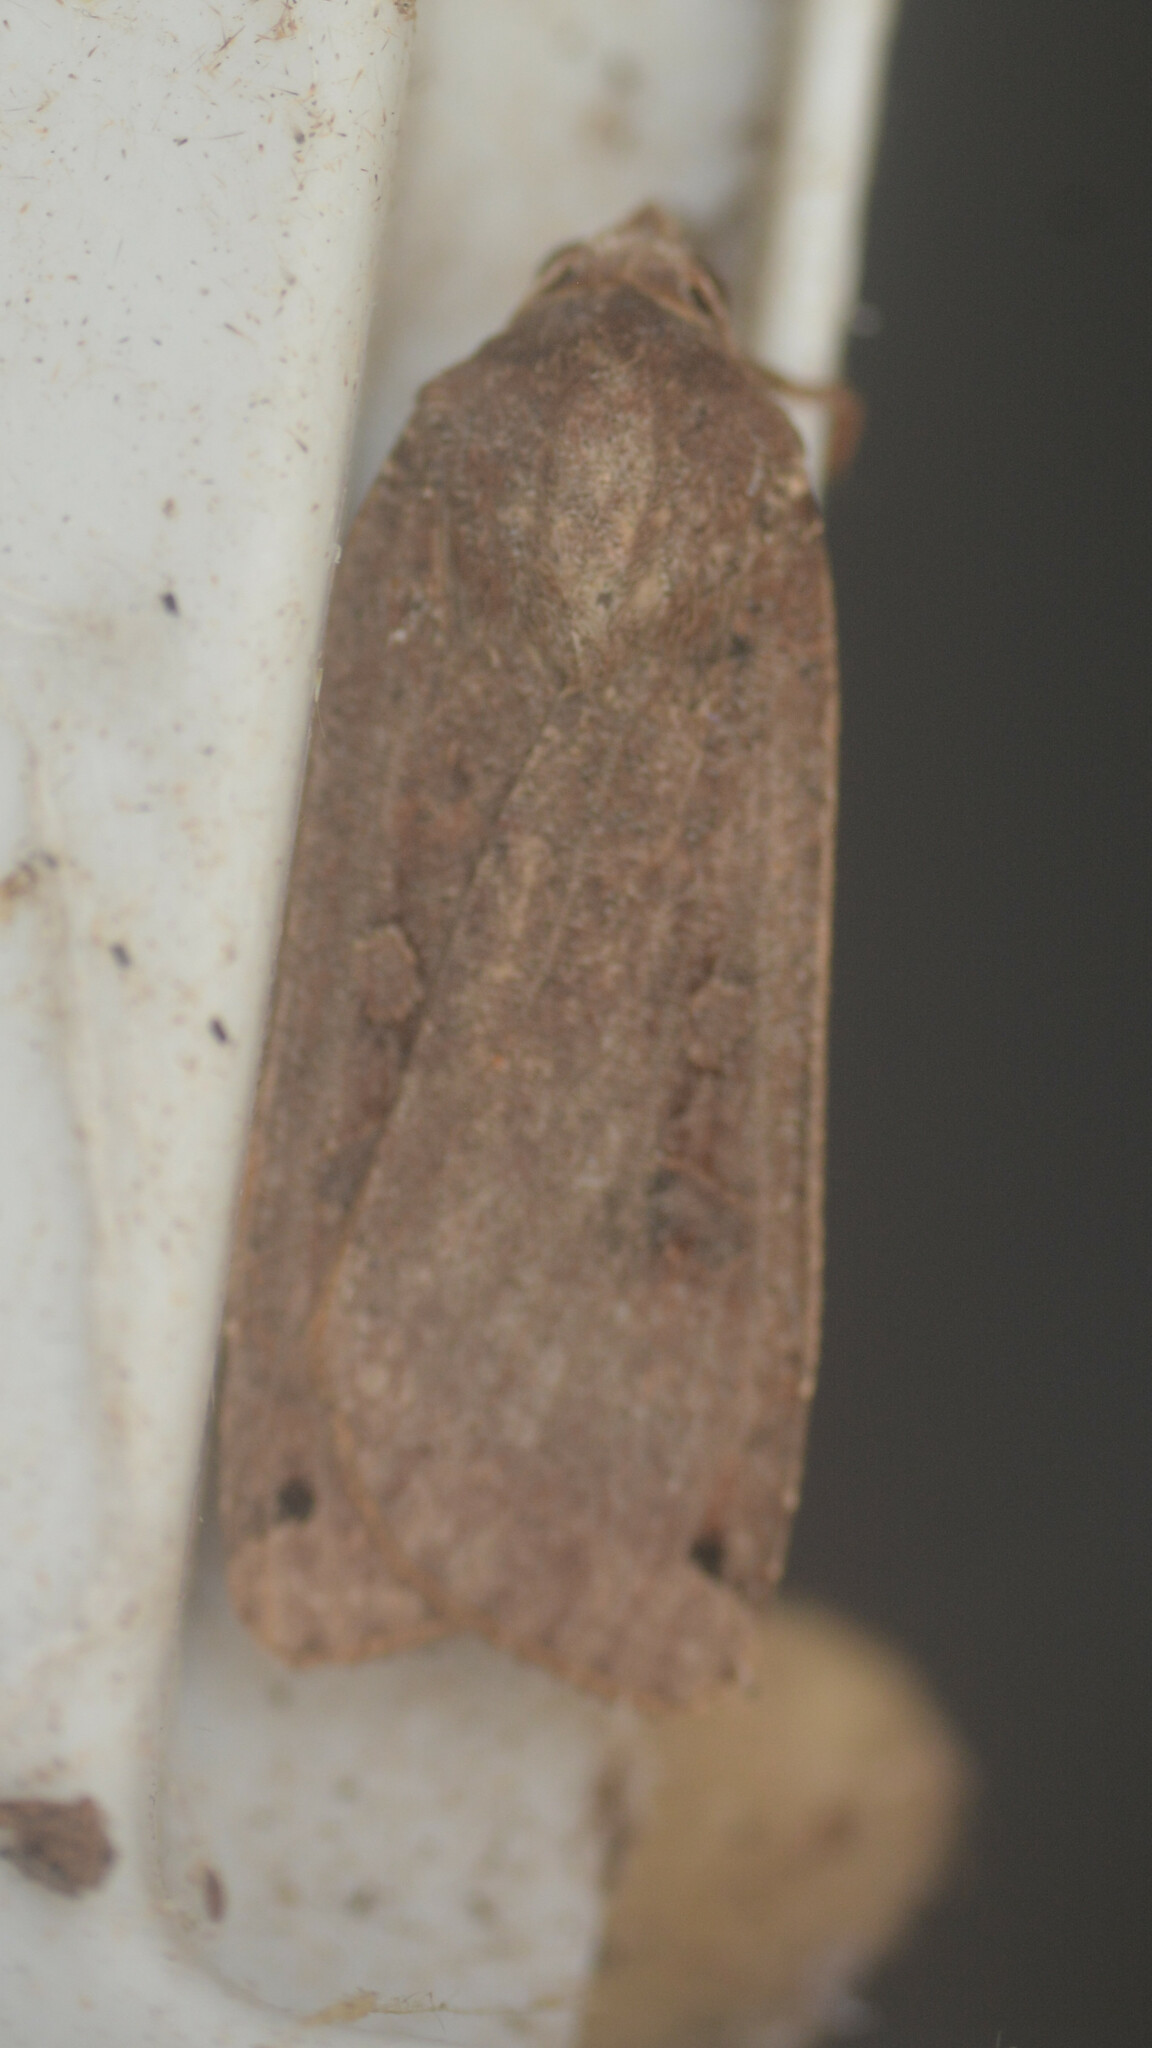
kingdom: Animalia
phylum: Arthropoda
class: Insecta
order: Lepidoptera
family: Noctuidae
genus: Noctua
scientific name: Noctua pronuba
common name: Large yellow underwing
